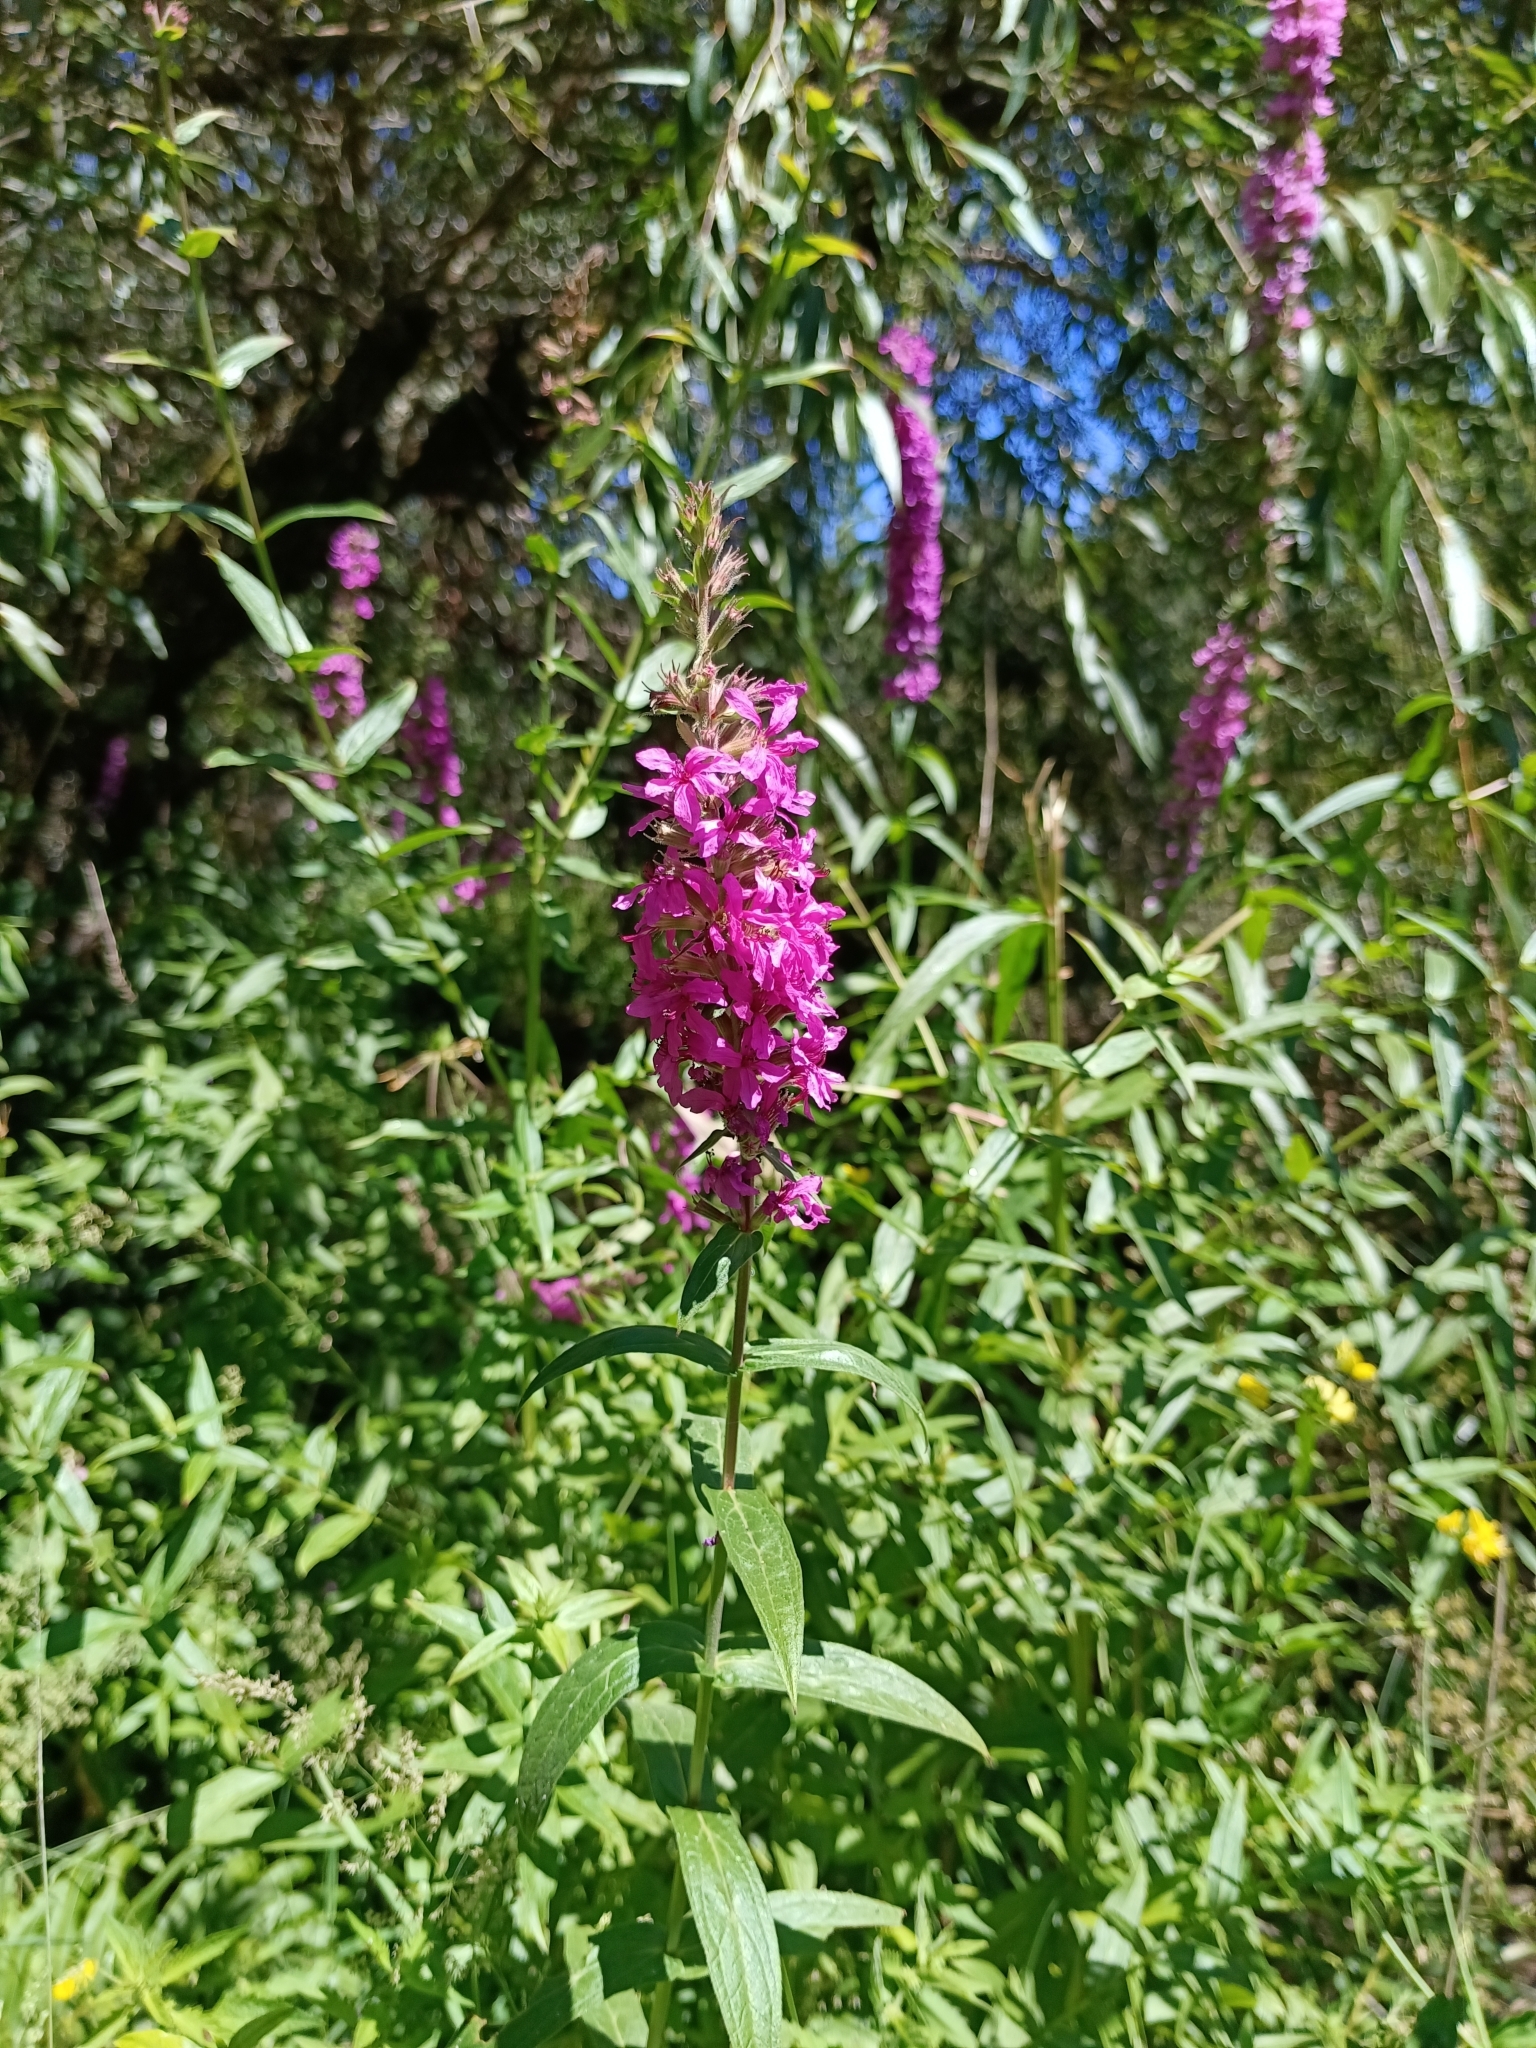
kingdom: Plantae
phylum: Tracheophyta
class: Magnoliopsida
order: Myrtales
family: Lythraceae
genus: Lythrum
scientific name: Lythrum salicaria
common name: Purple loosestrife
